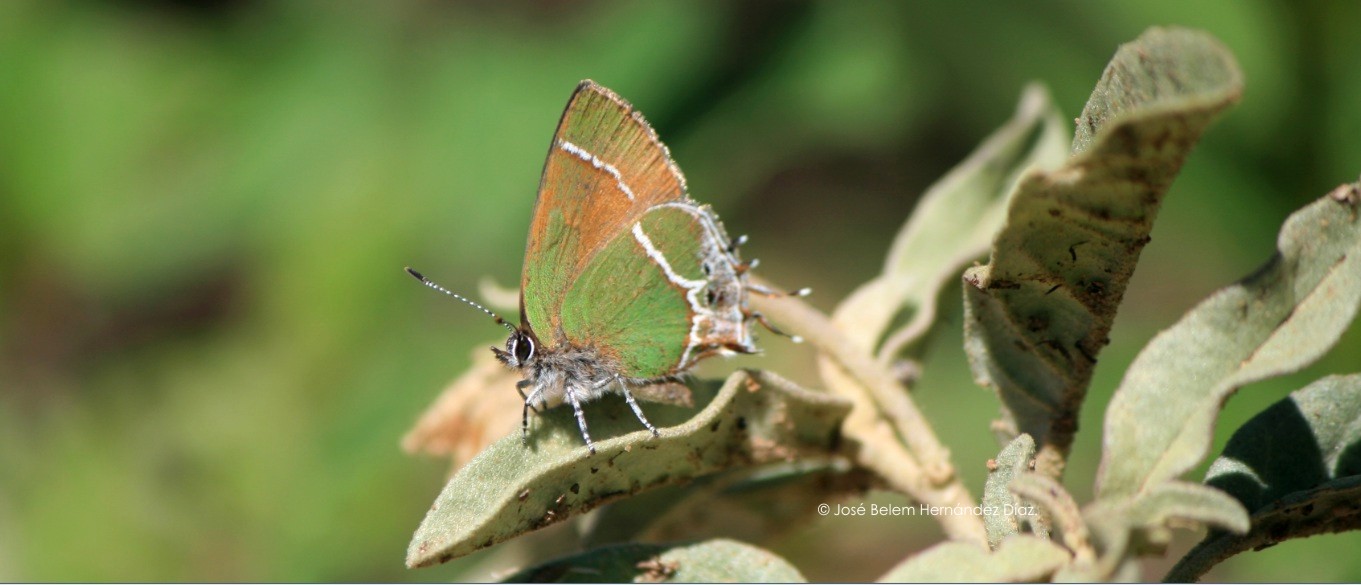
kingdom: Animalia
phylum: Arthropoda
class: Insecta
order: Lepidoptera
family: Lycaenidae
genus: Xamia
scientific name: Xamia xami
